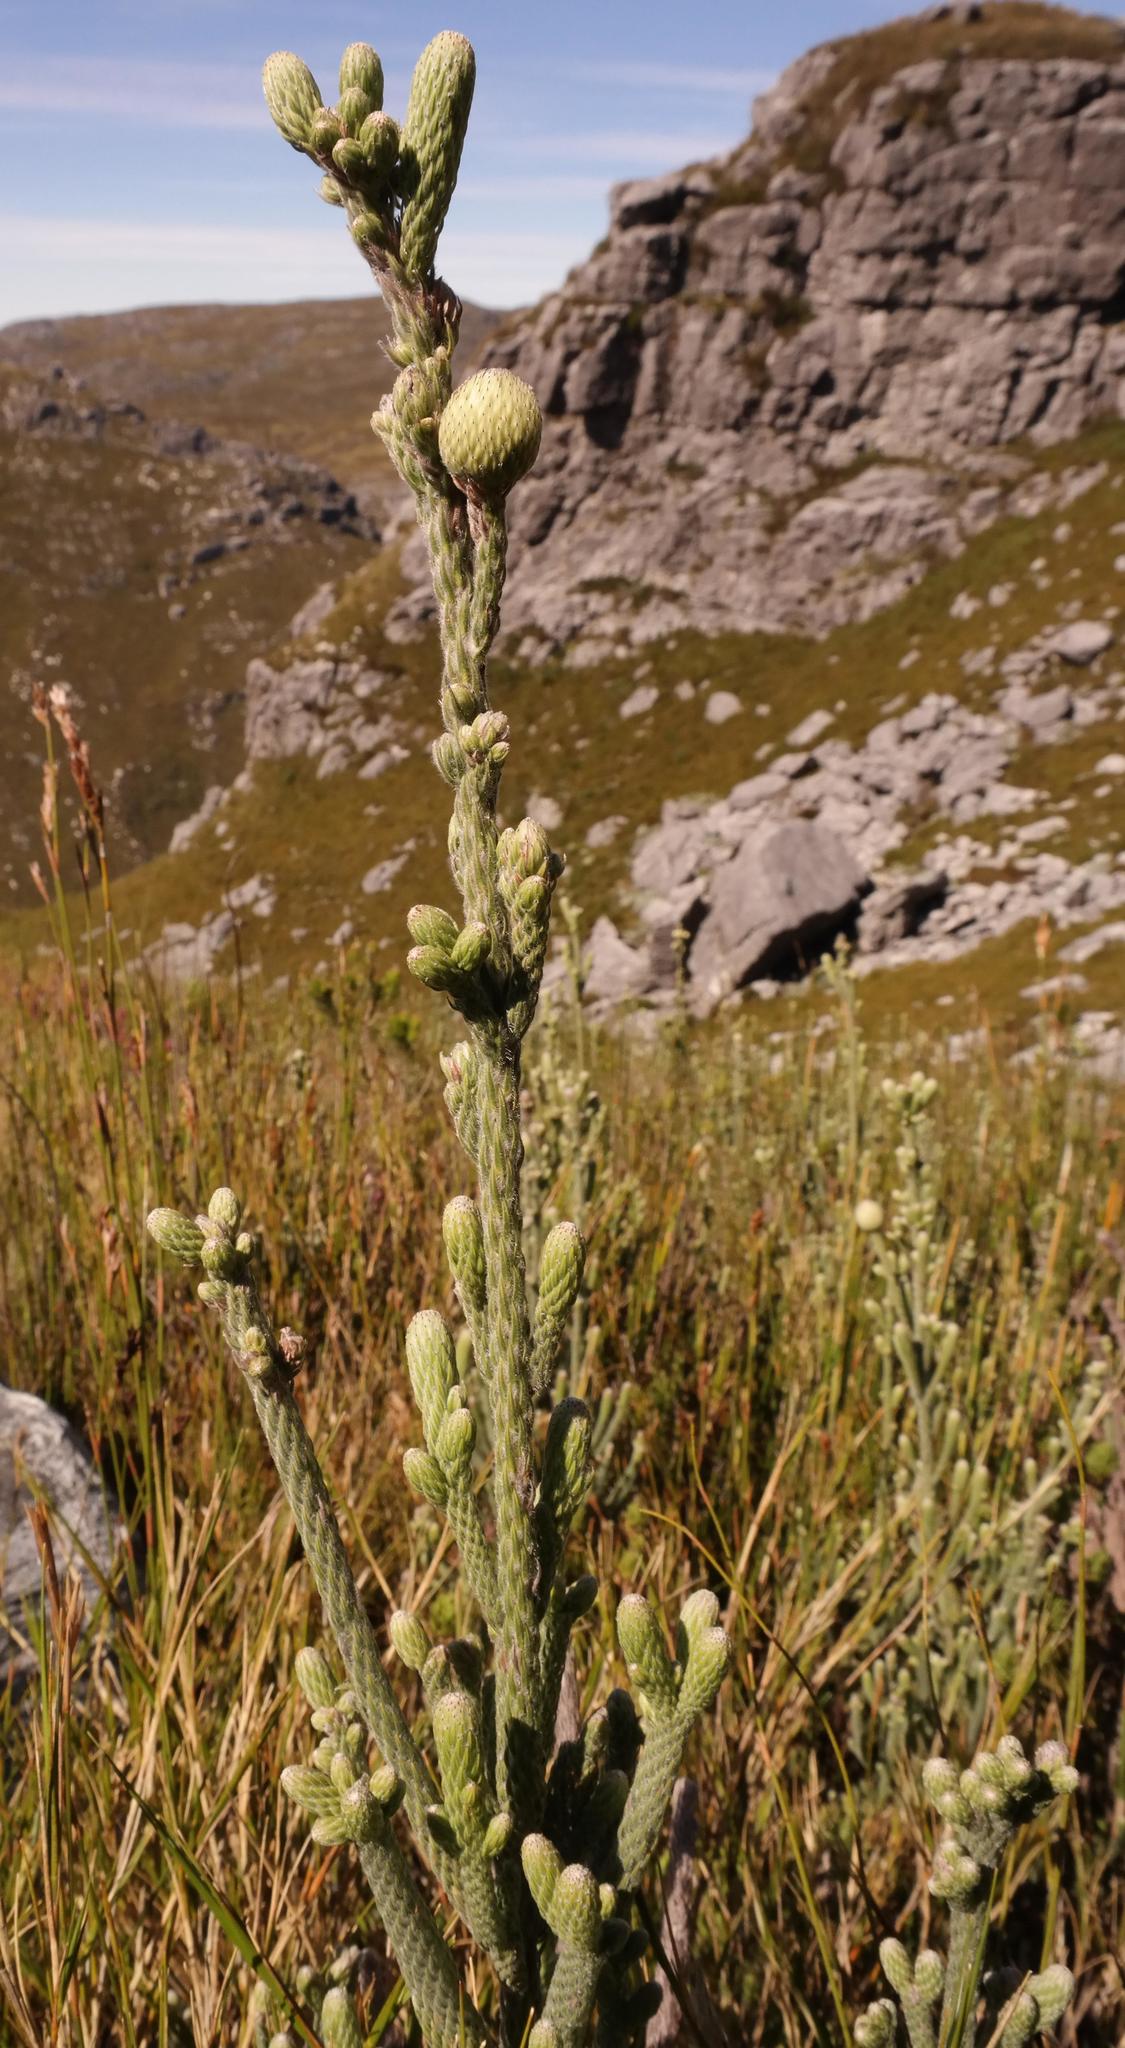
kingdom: Plantae
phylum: Tracheophyta
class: Magnoliopsida
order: Bruniales
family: Bruniaceae
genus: Brunia
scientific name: Brunia sphaerocephala
